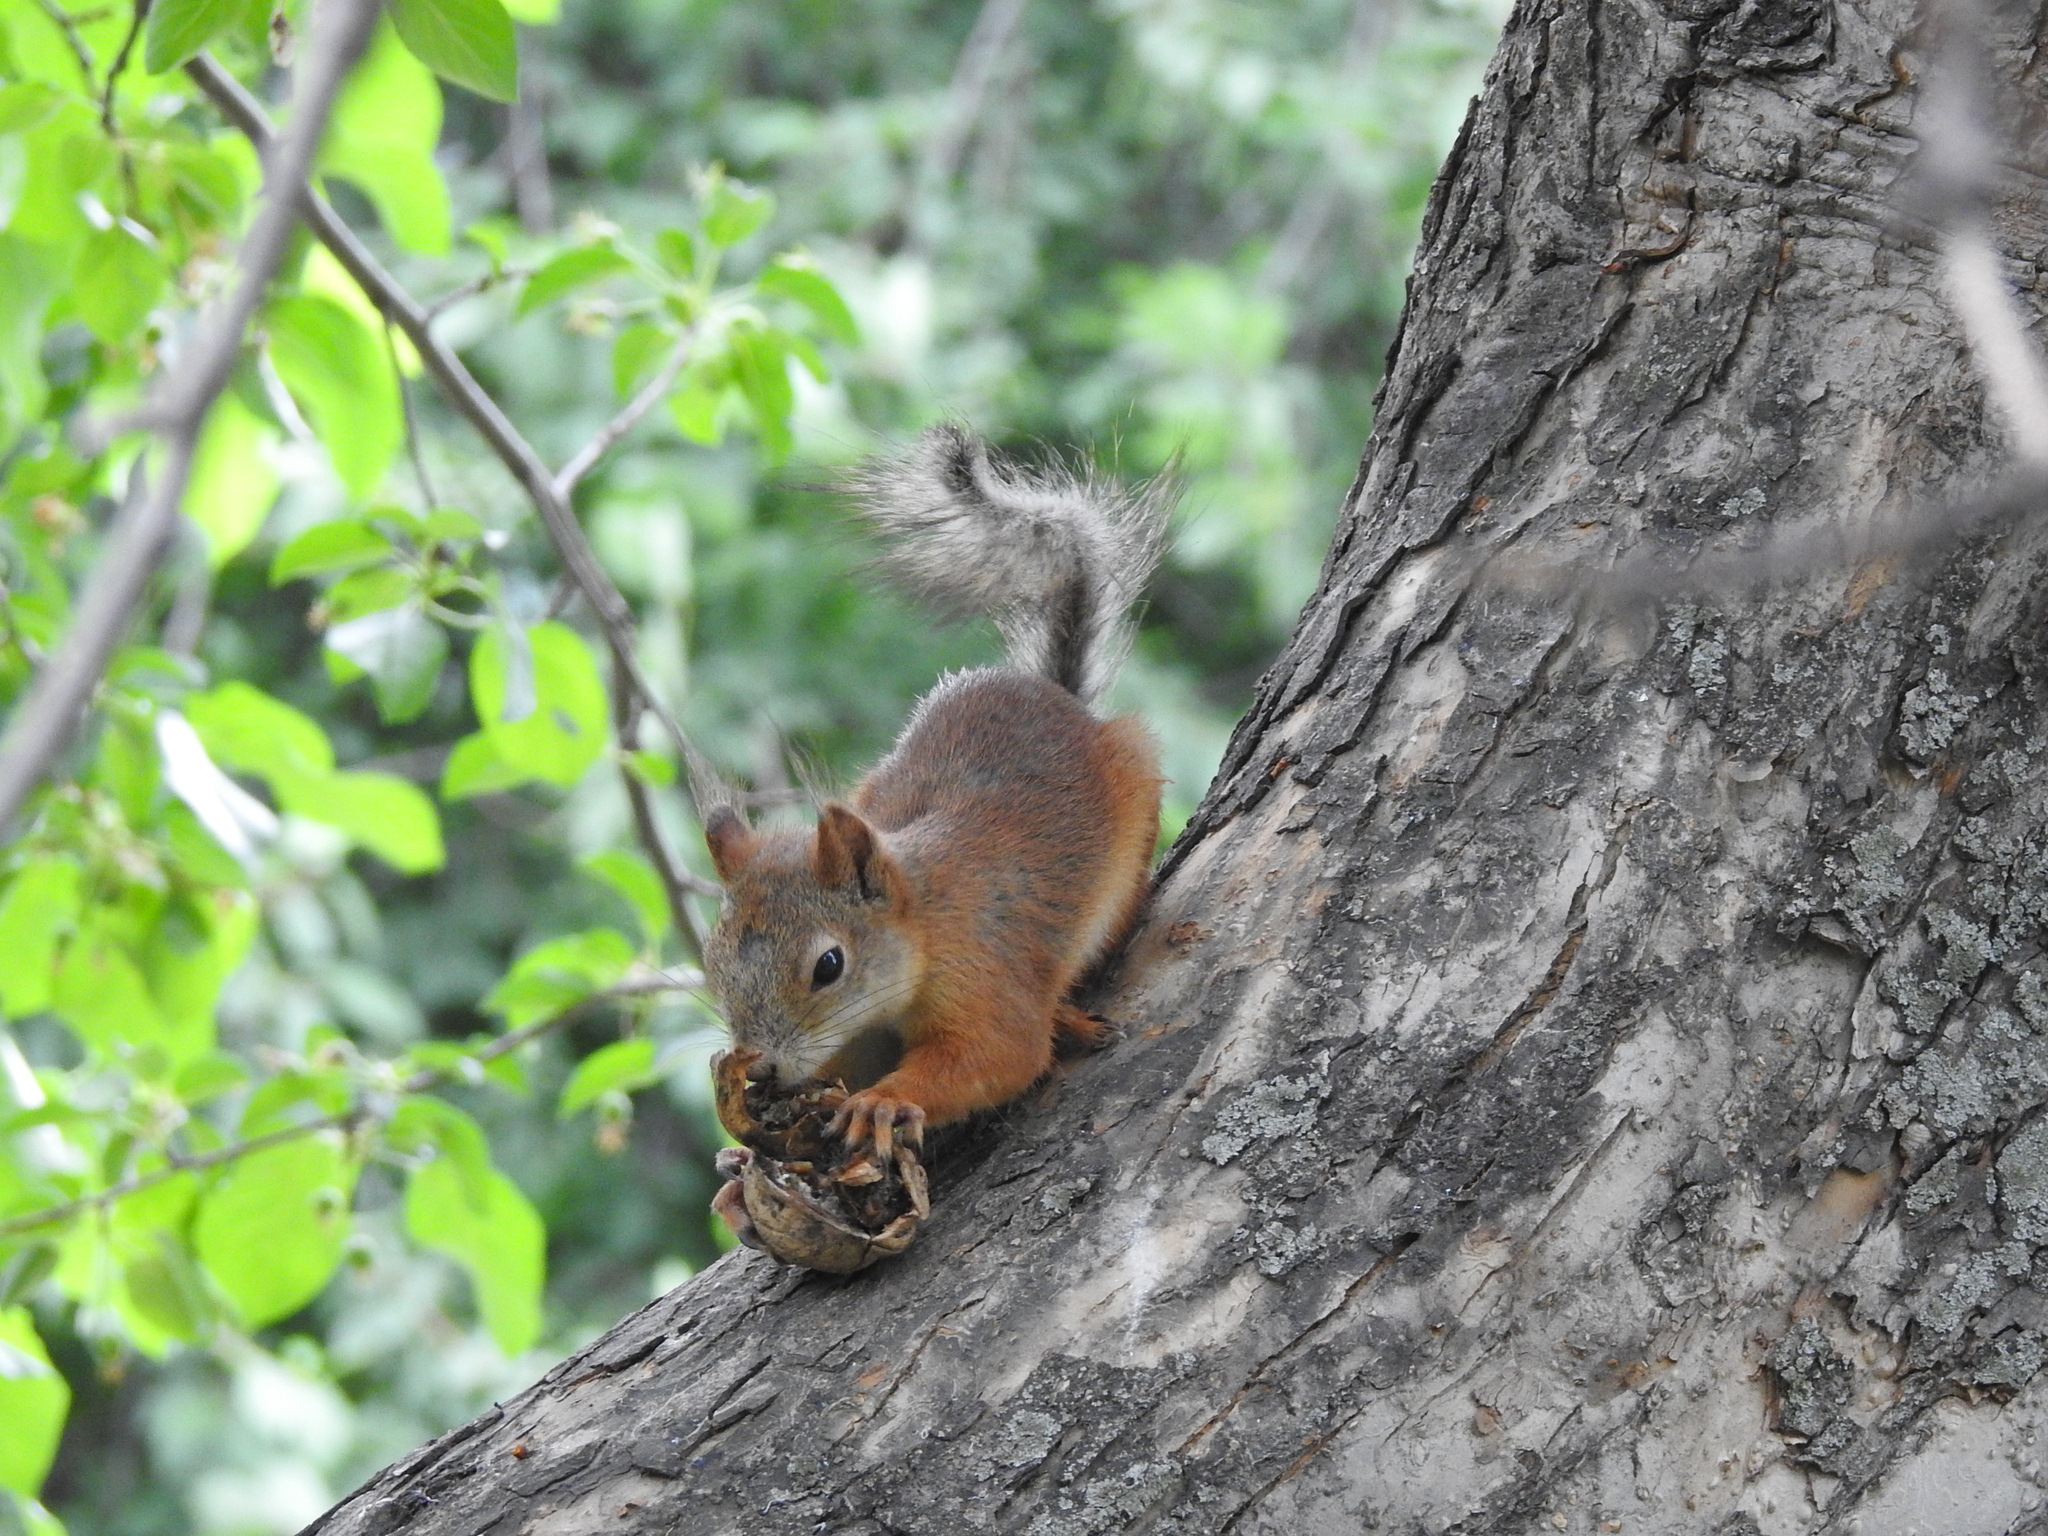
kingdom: Animalia
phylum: Chordata
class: Mammalia
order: Rodentia
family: Sciuridae
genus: Sciurus
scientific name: Sciurus vulgaris
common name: Eurasian red squirrel
